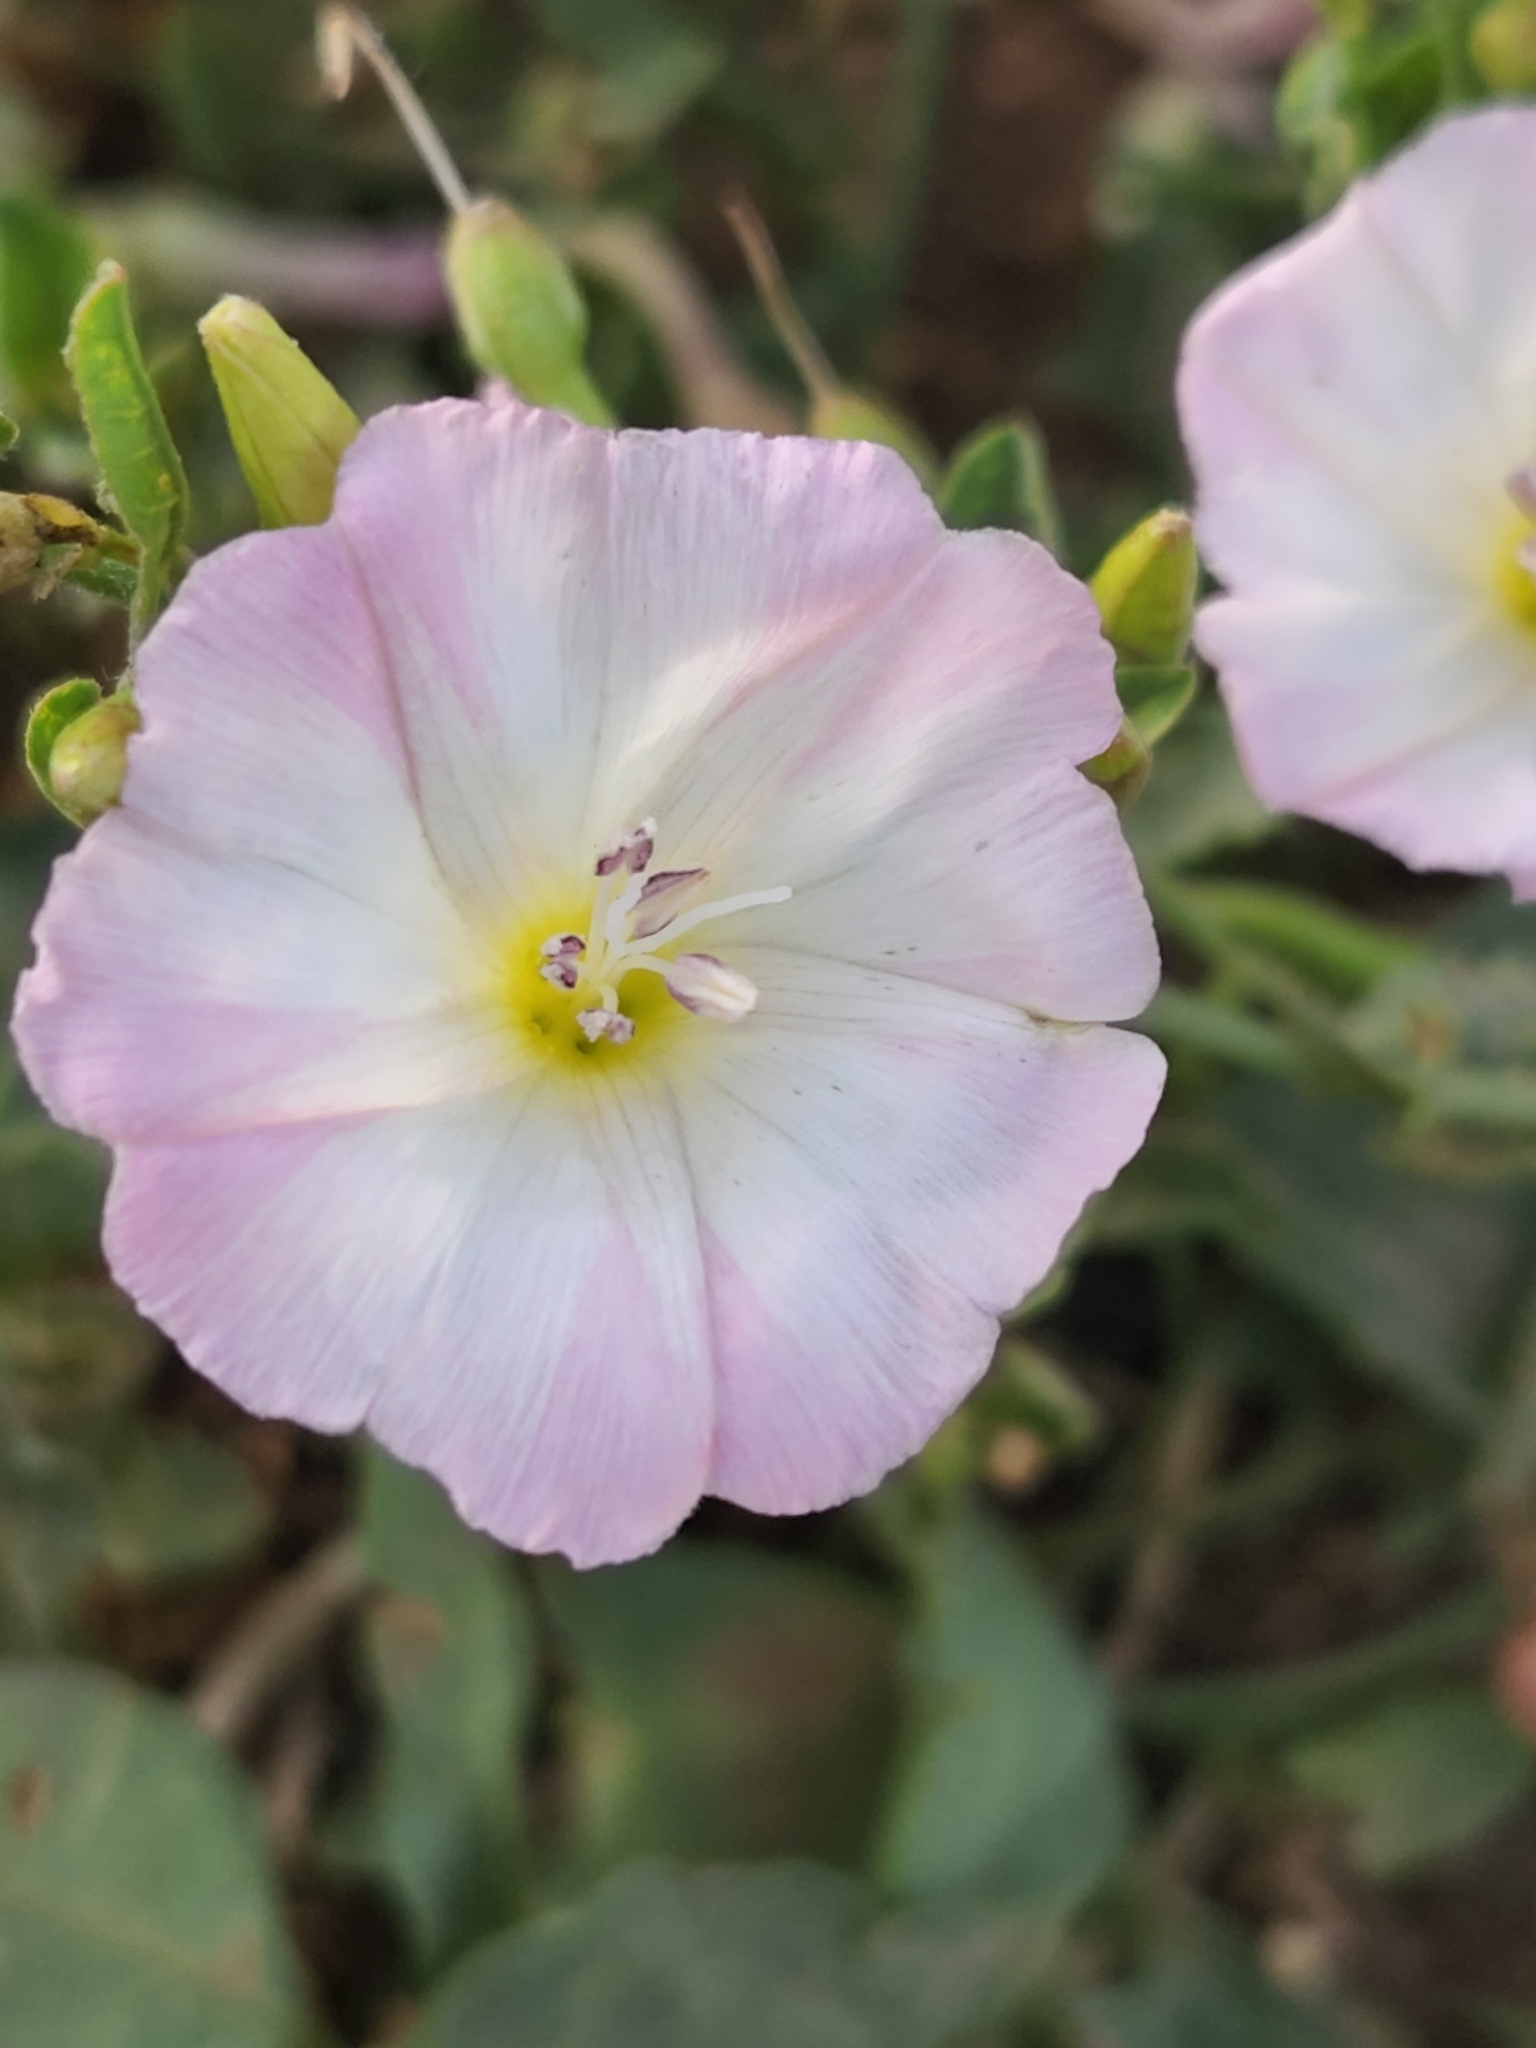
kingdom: Plantae
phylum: Tracheophyta
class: Magnoliopsida
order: Solanales
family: Convolvulaceae
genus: Convolvulus
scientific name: Convolvulus arvensis
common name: Field bindweed
